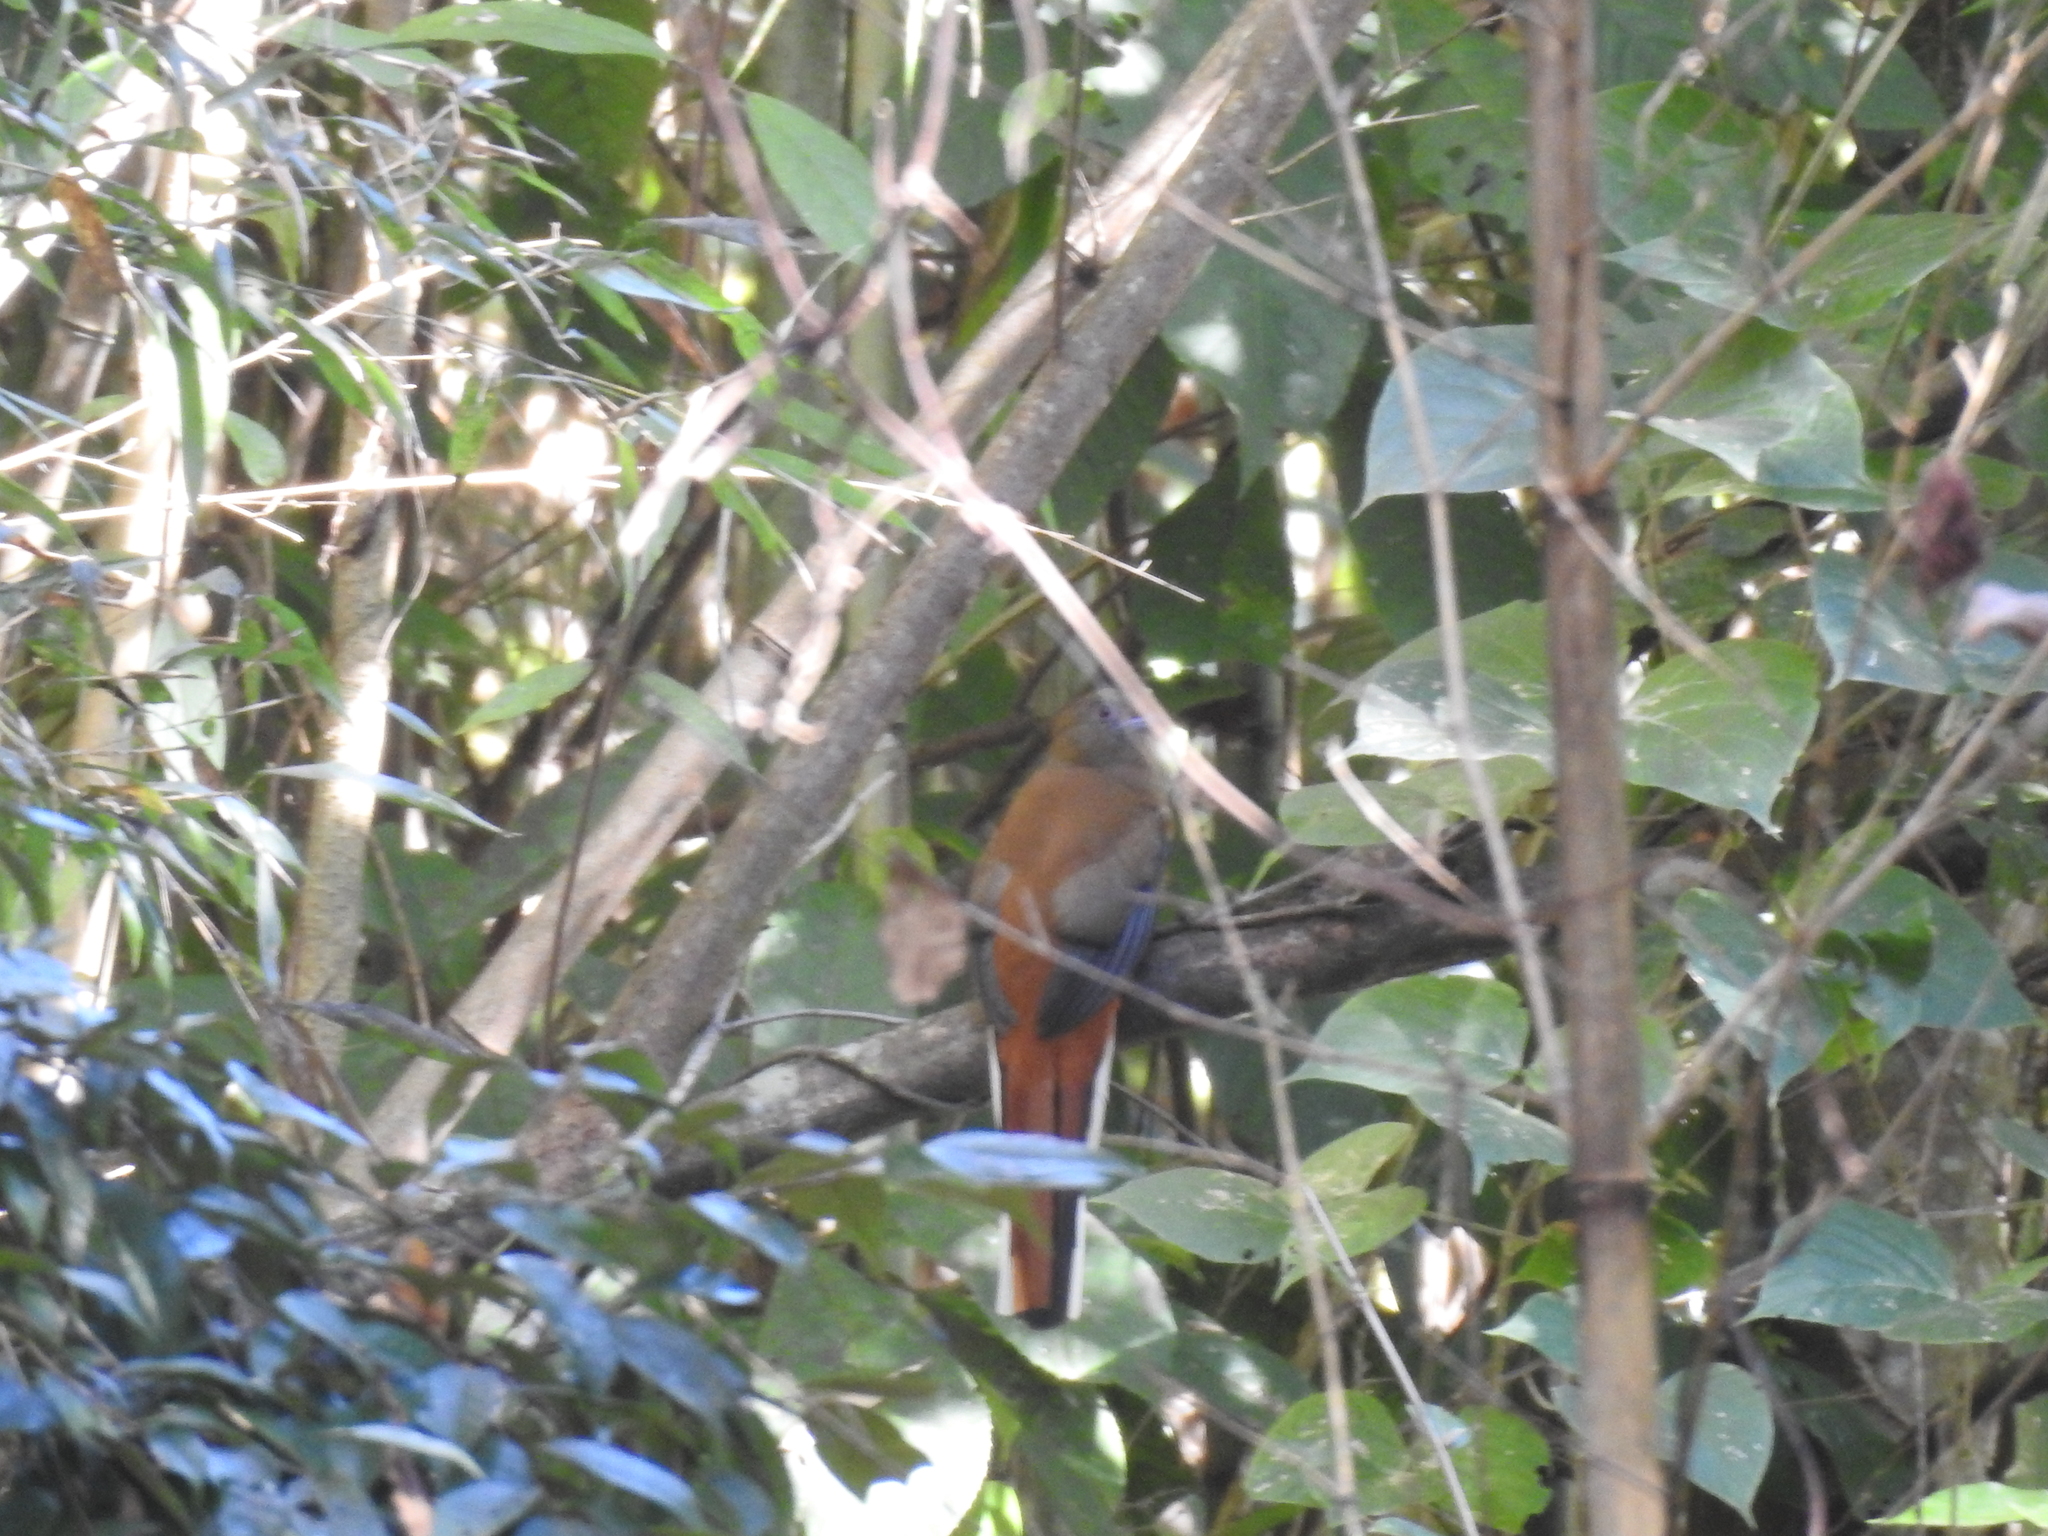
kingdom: Animalia
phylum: Chordata
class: Aves
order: Trogoniformes
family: Trogonidae
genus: Harpactes
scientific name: Harpactes erythrocephalus
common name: Red-headed trogon
